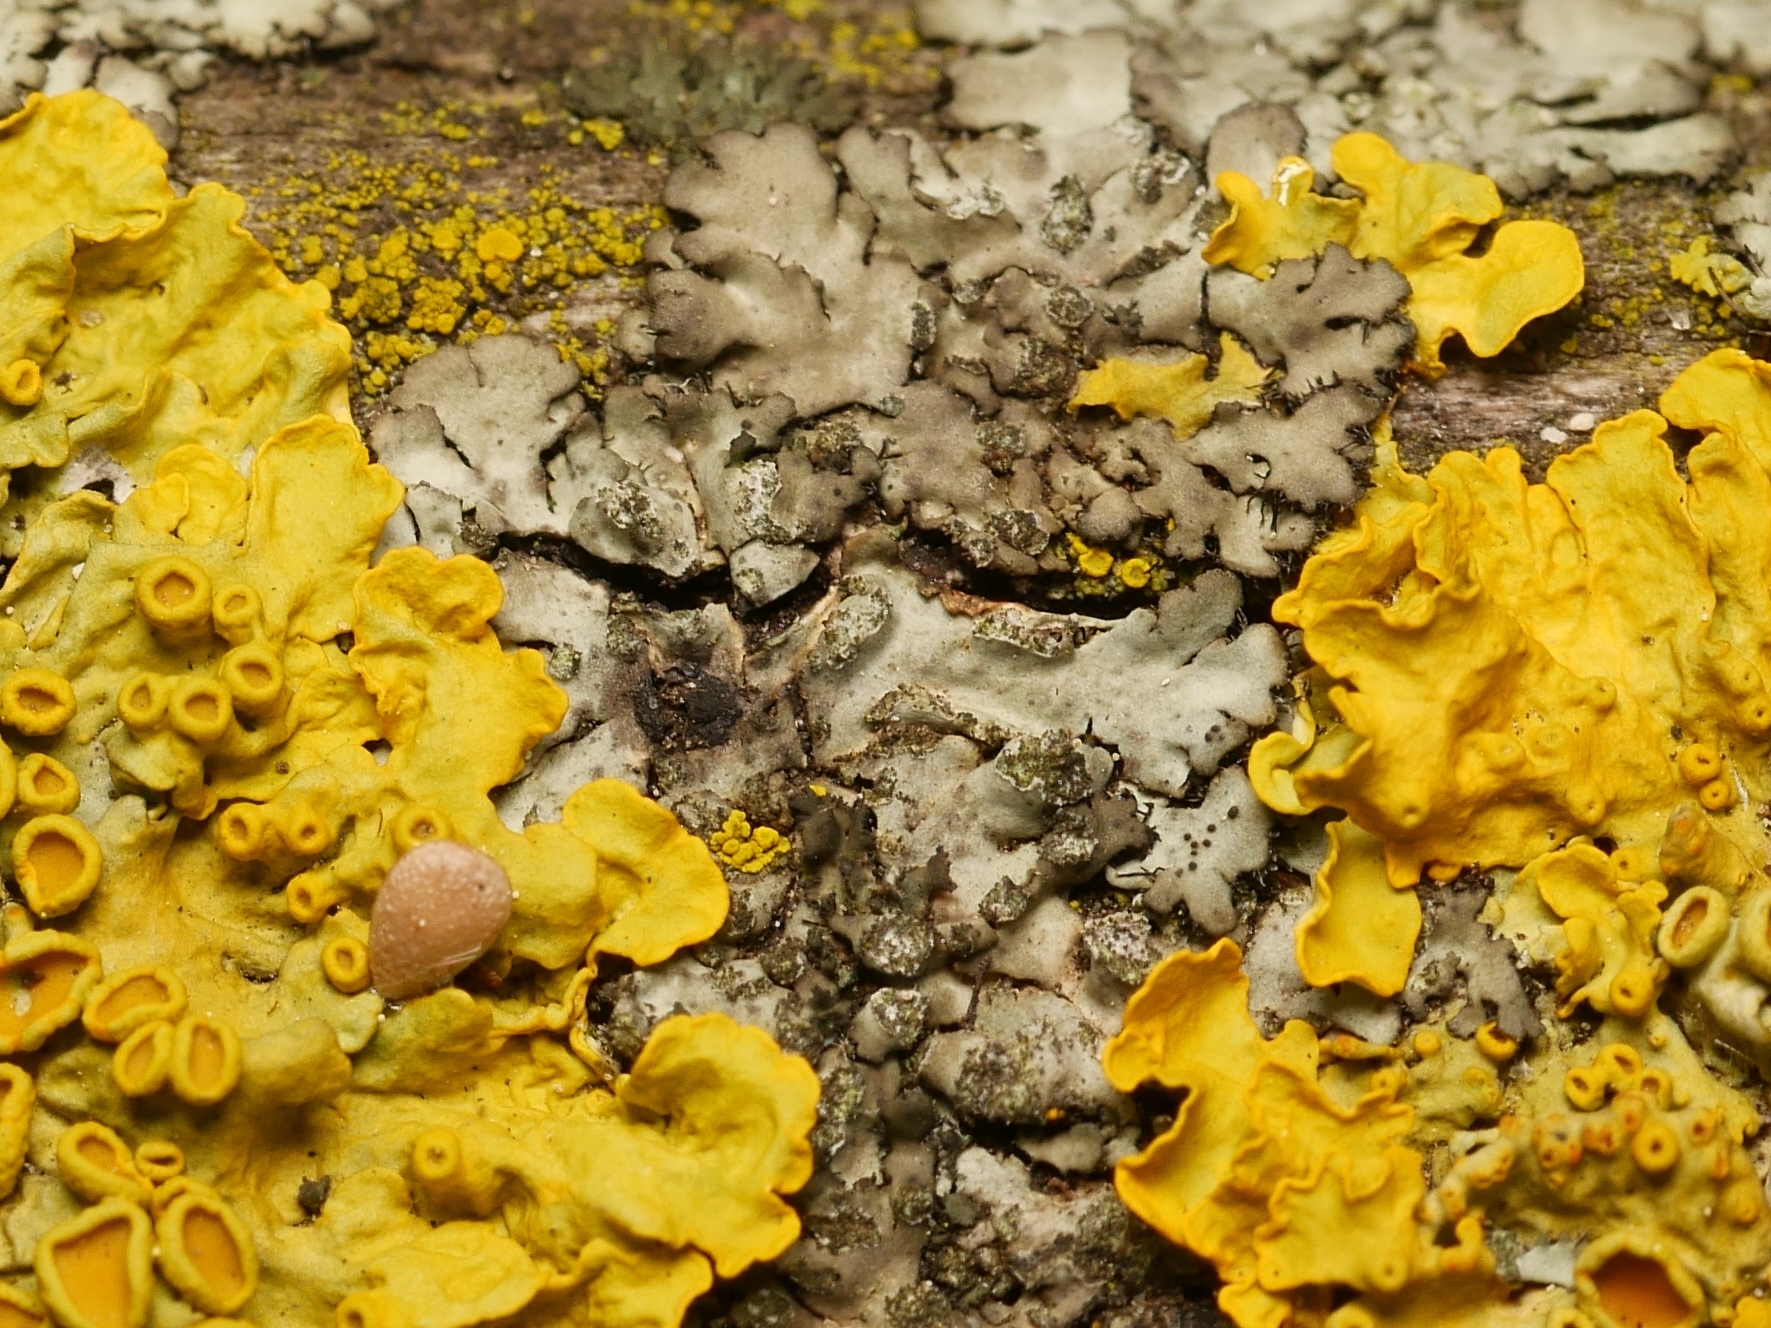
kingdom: Fungi
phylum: Ascomycota
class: Lecanoromycetes
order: Caliciales
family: Physciaceae
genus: Phaeophyscia
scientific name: Phaeophyscia orbicularis
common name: Mealy shadow lichen
